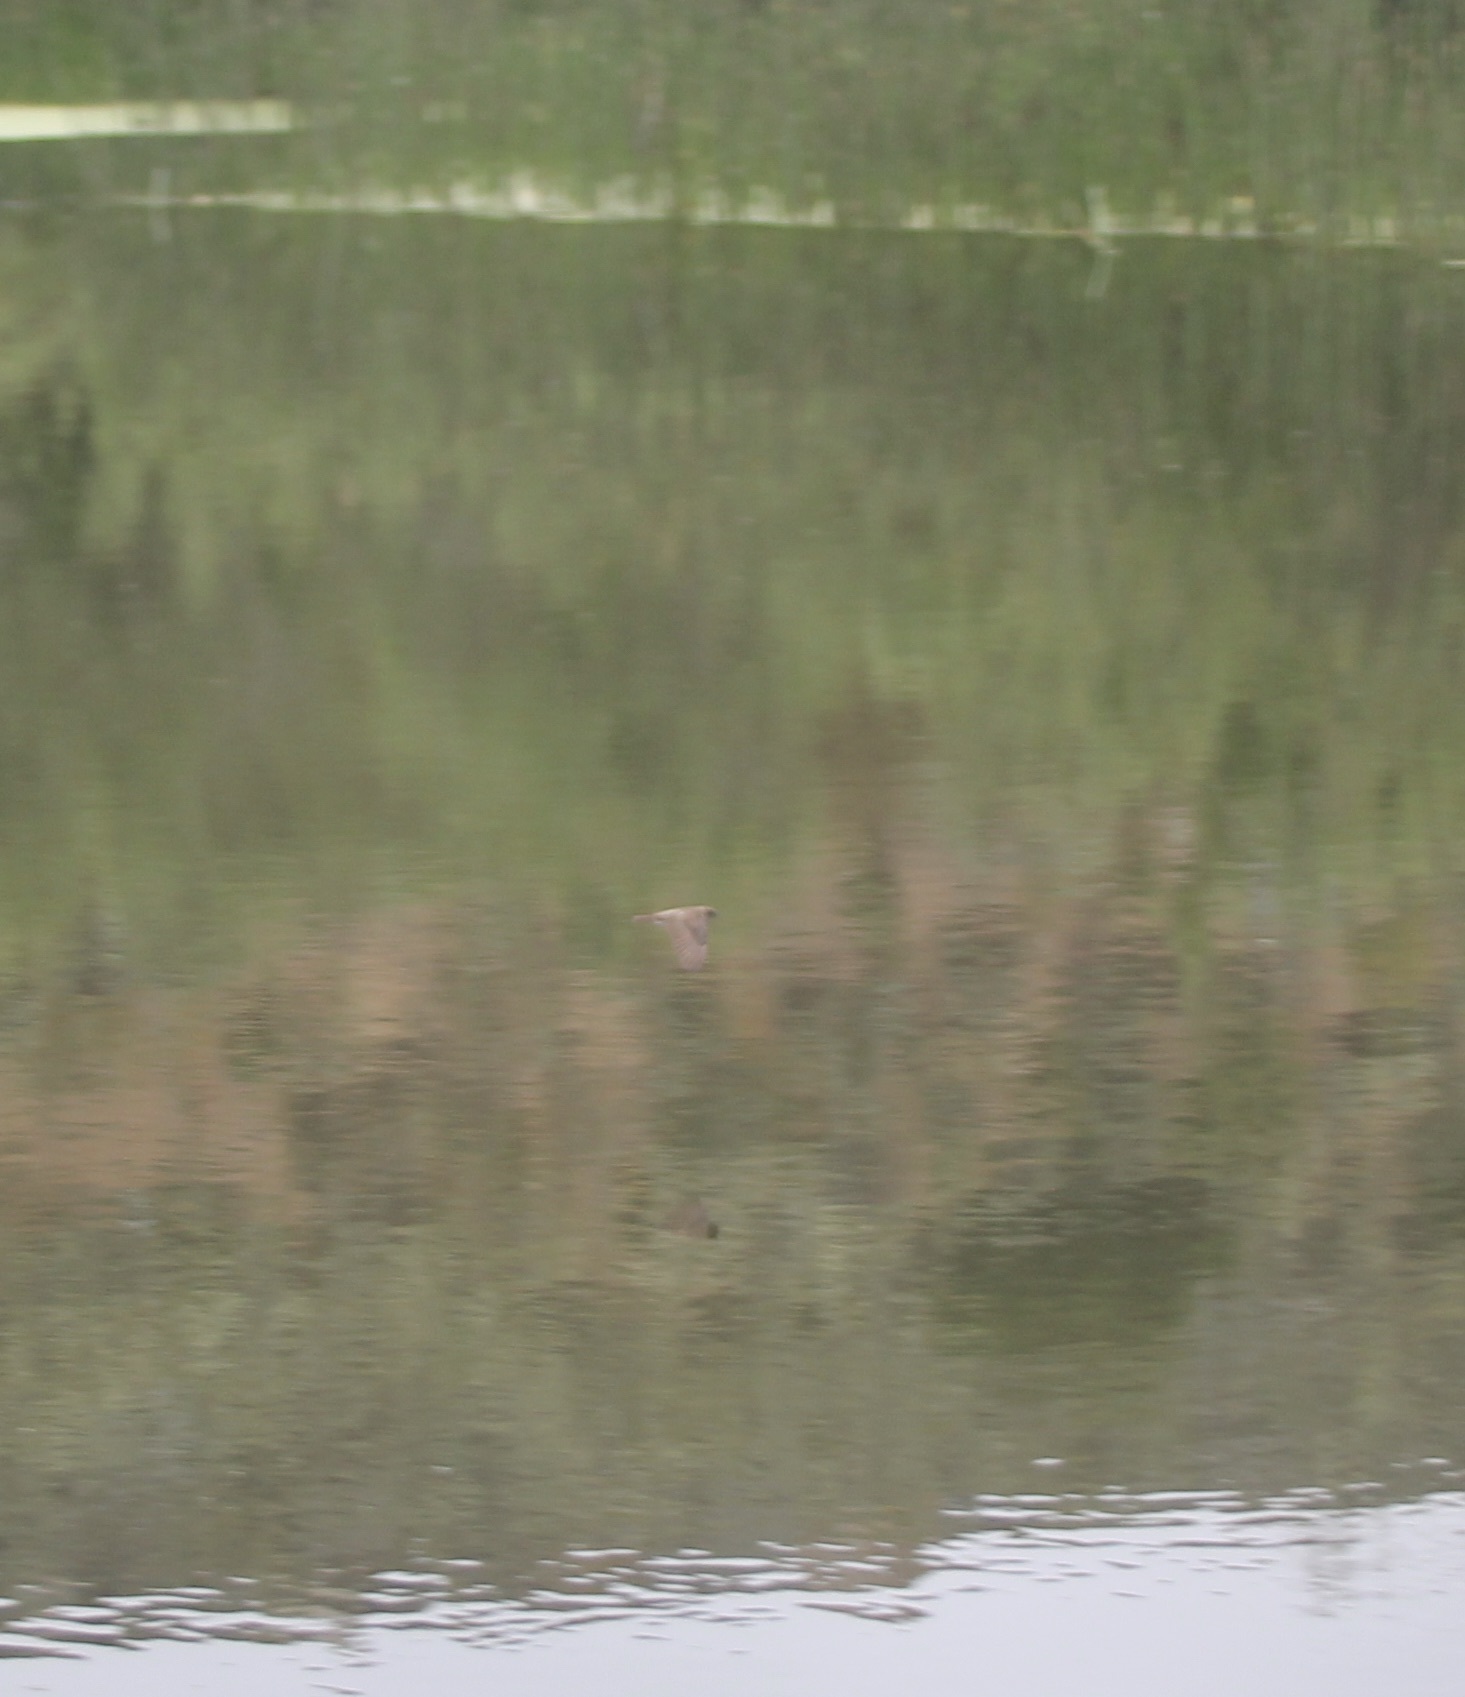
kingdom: Animalia
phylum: Chordata
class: Aves
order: Passeriformes
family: Hirundinidae
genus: Stelgidopteryx
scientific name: Stelgidopteryx serripennis
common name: Northern rough-winged swallow
